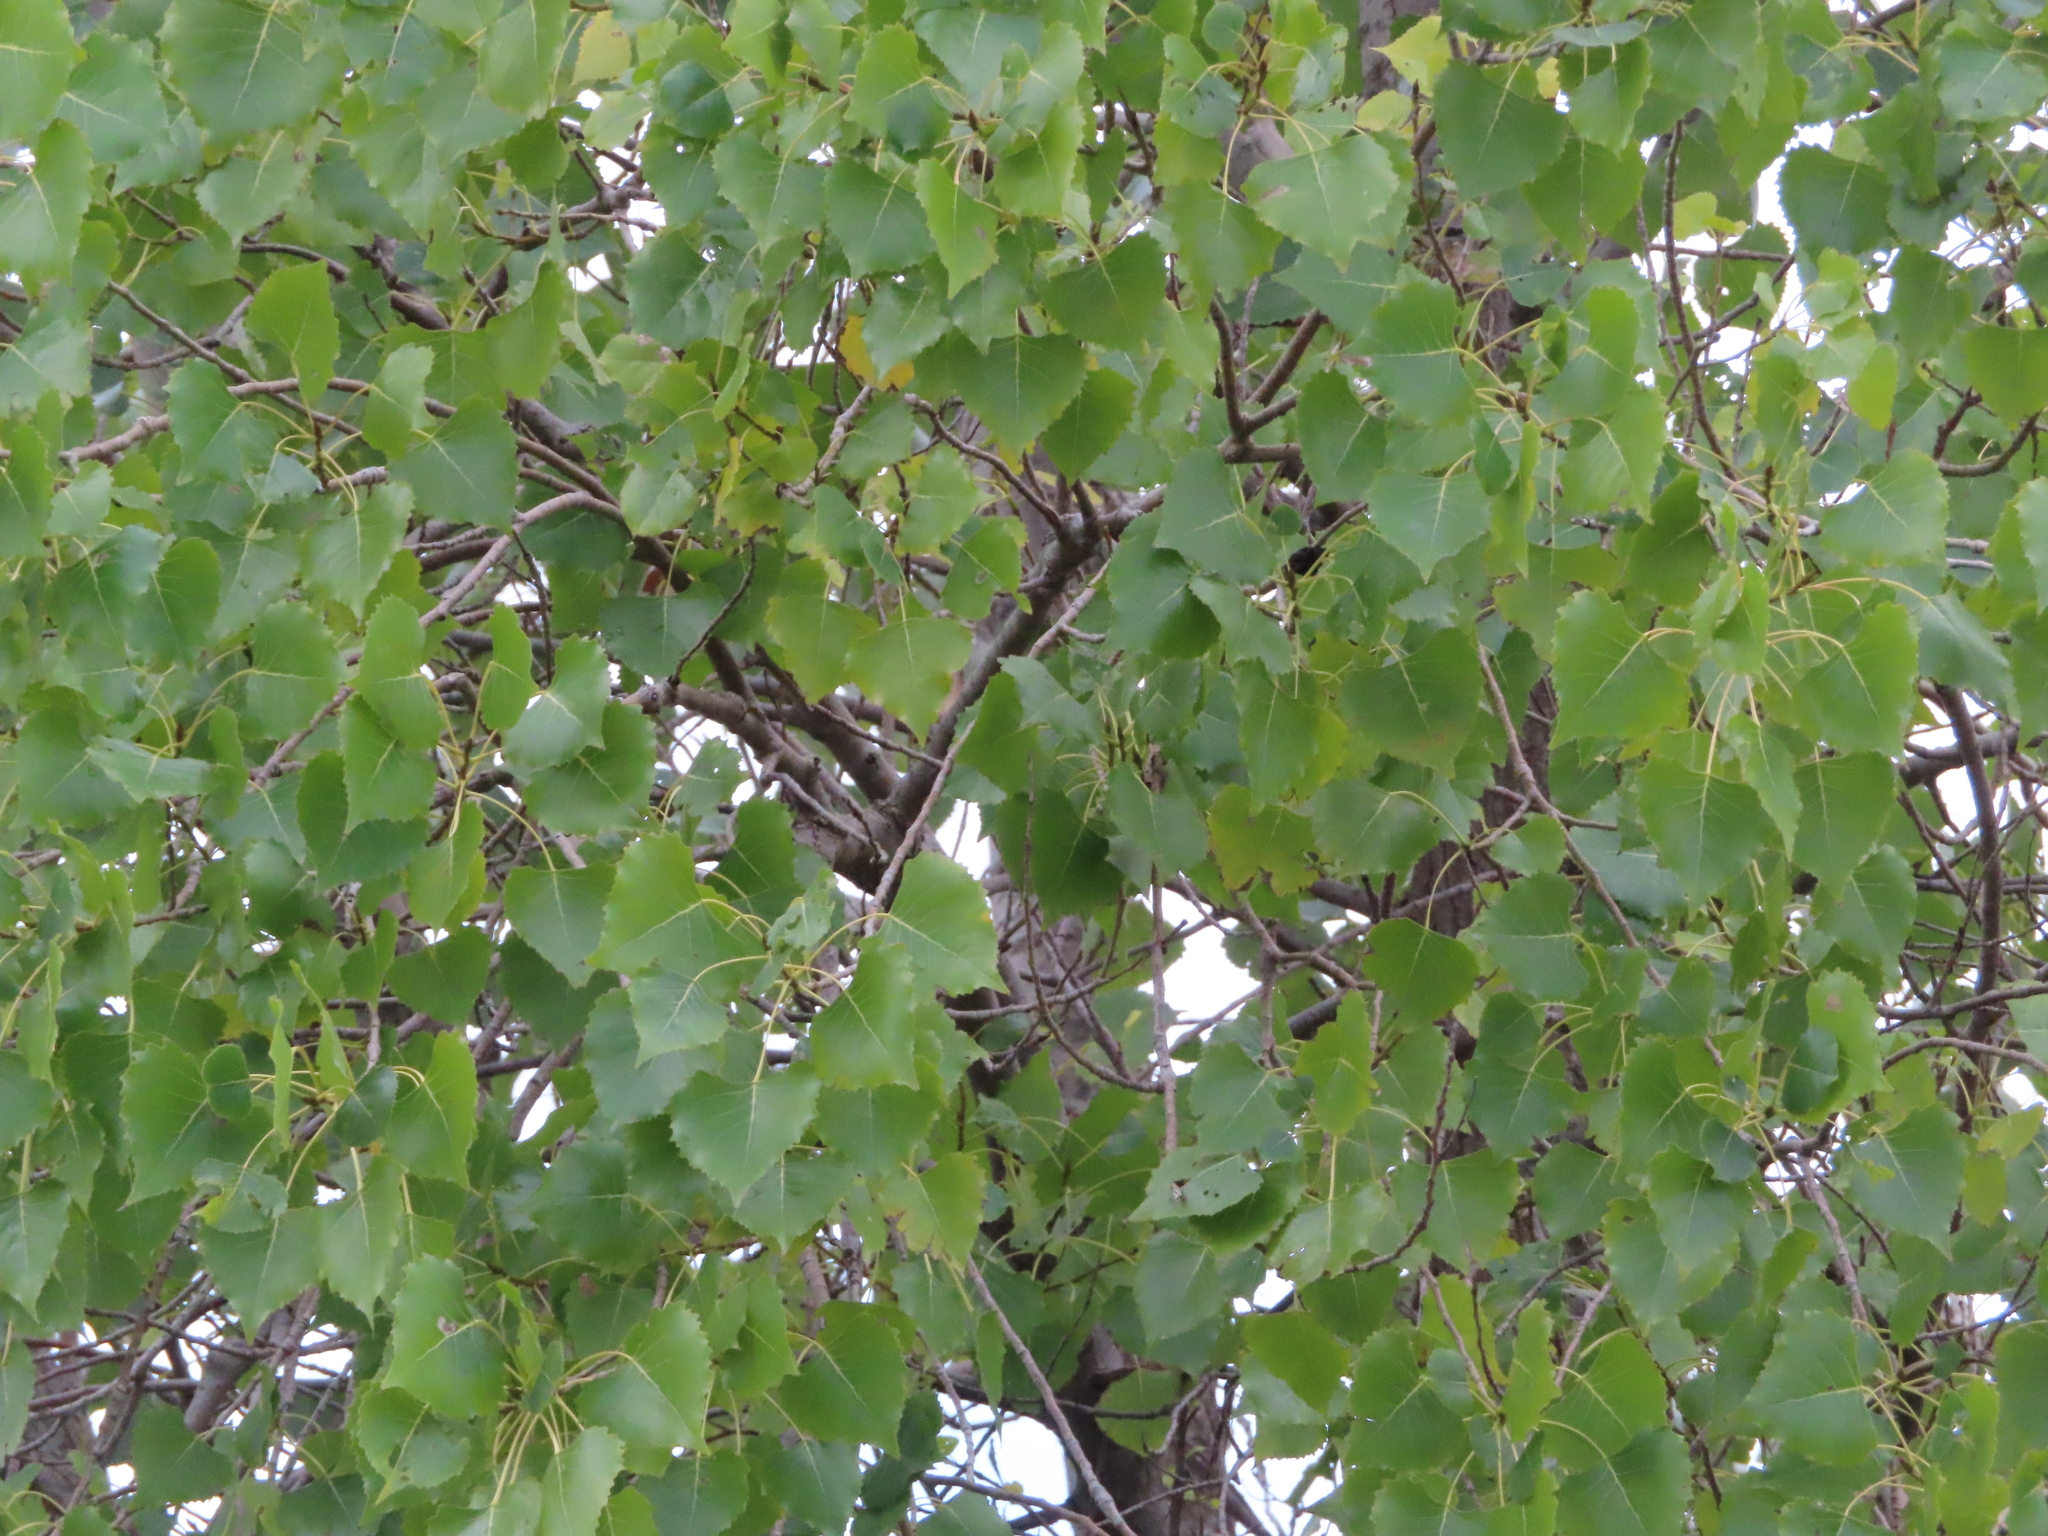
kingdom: Plantae
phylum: Tracheophyta
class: Magnoliopsida
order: Malpighiales
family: Salicaceae
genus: Populus
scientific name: Populus deltoides
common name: Eastern cottonwood
